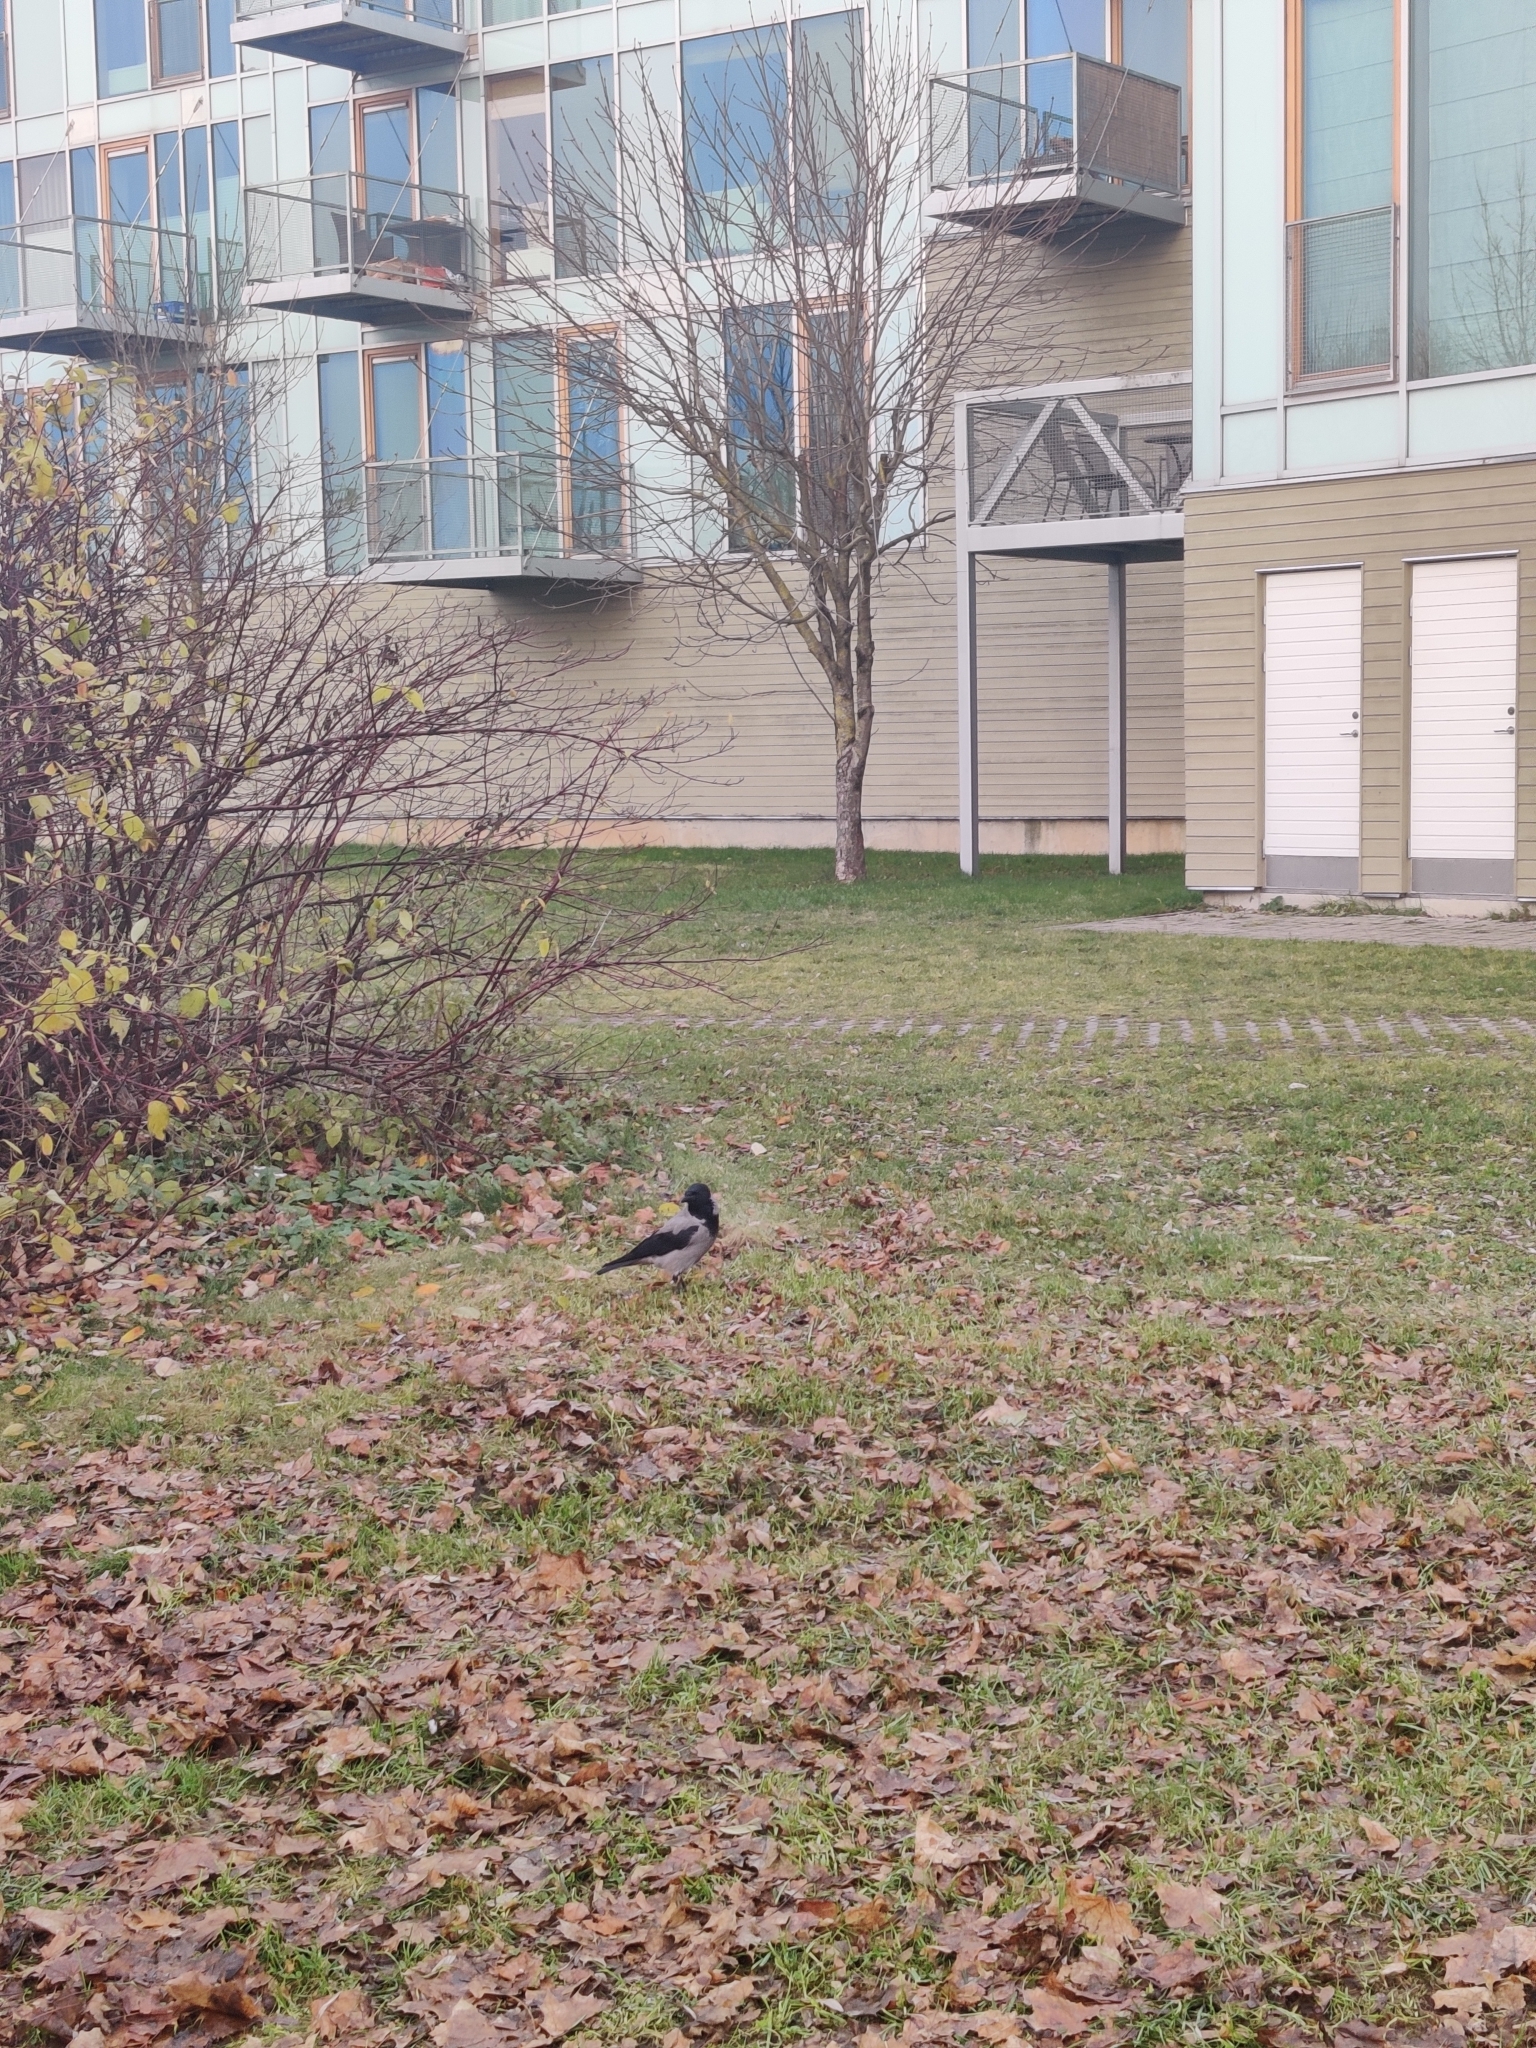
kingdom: Animalia
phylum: Chordata
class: Aves
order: Passeriformes
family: Corvidae
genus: Corvus
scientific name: Corvus cornix
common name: Hooded crow
